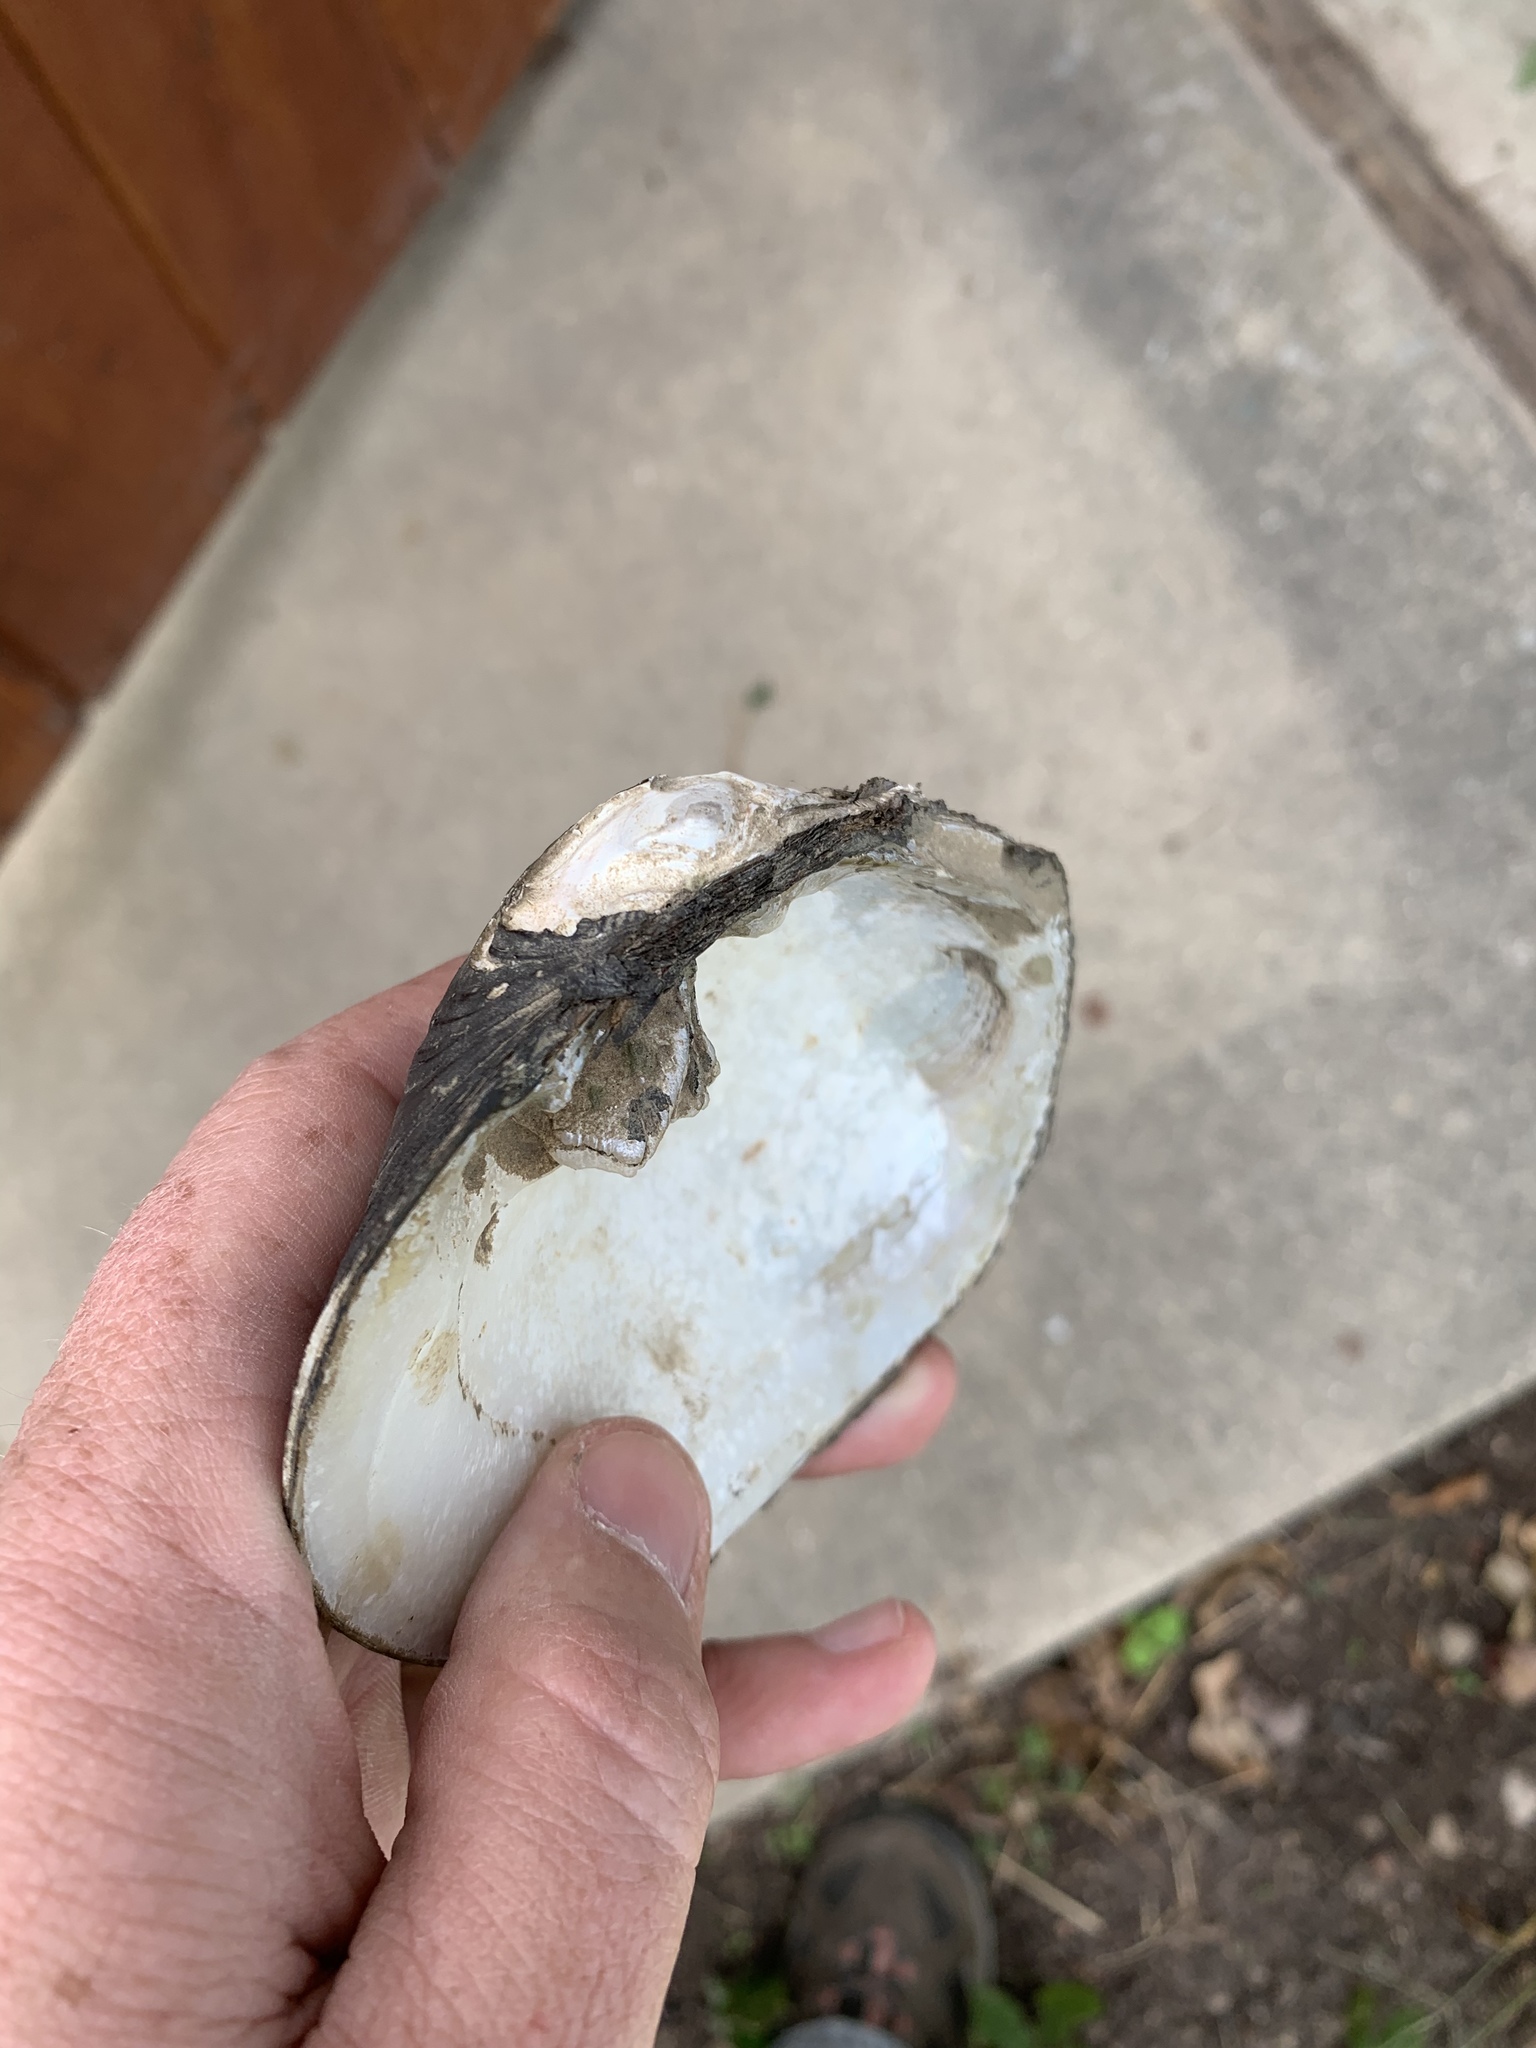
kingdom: Animalia
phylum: Mollusca
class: Bivalvia
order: Unionida
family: Unionidae
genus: Quadrula
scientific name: Quadrula quadrula
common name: Mapleleaf
